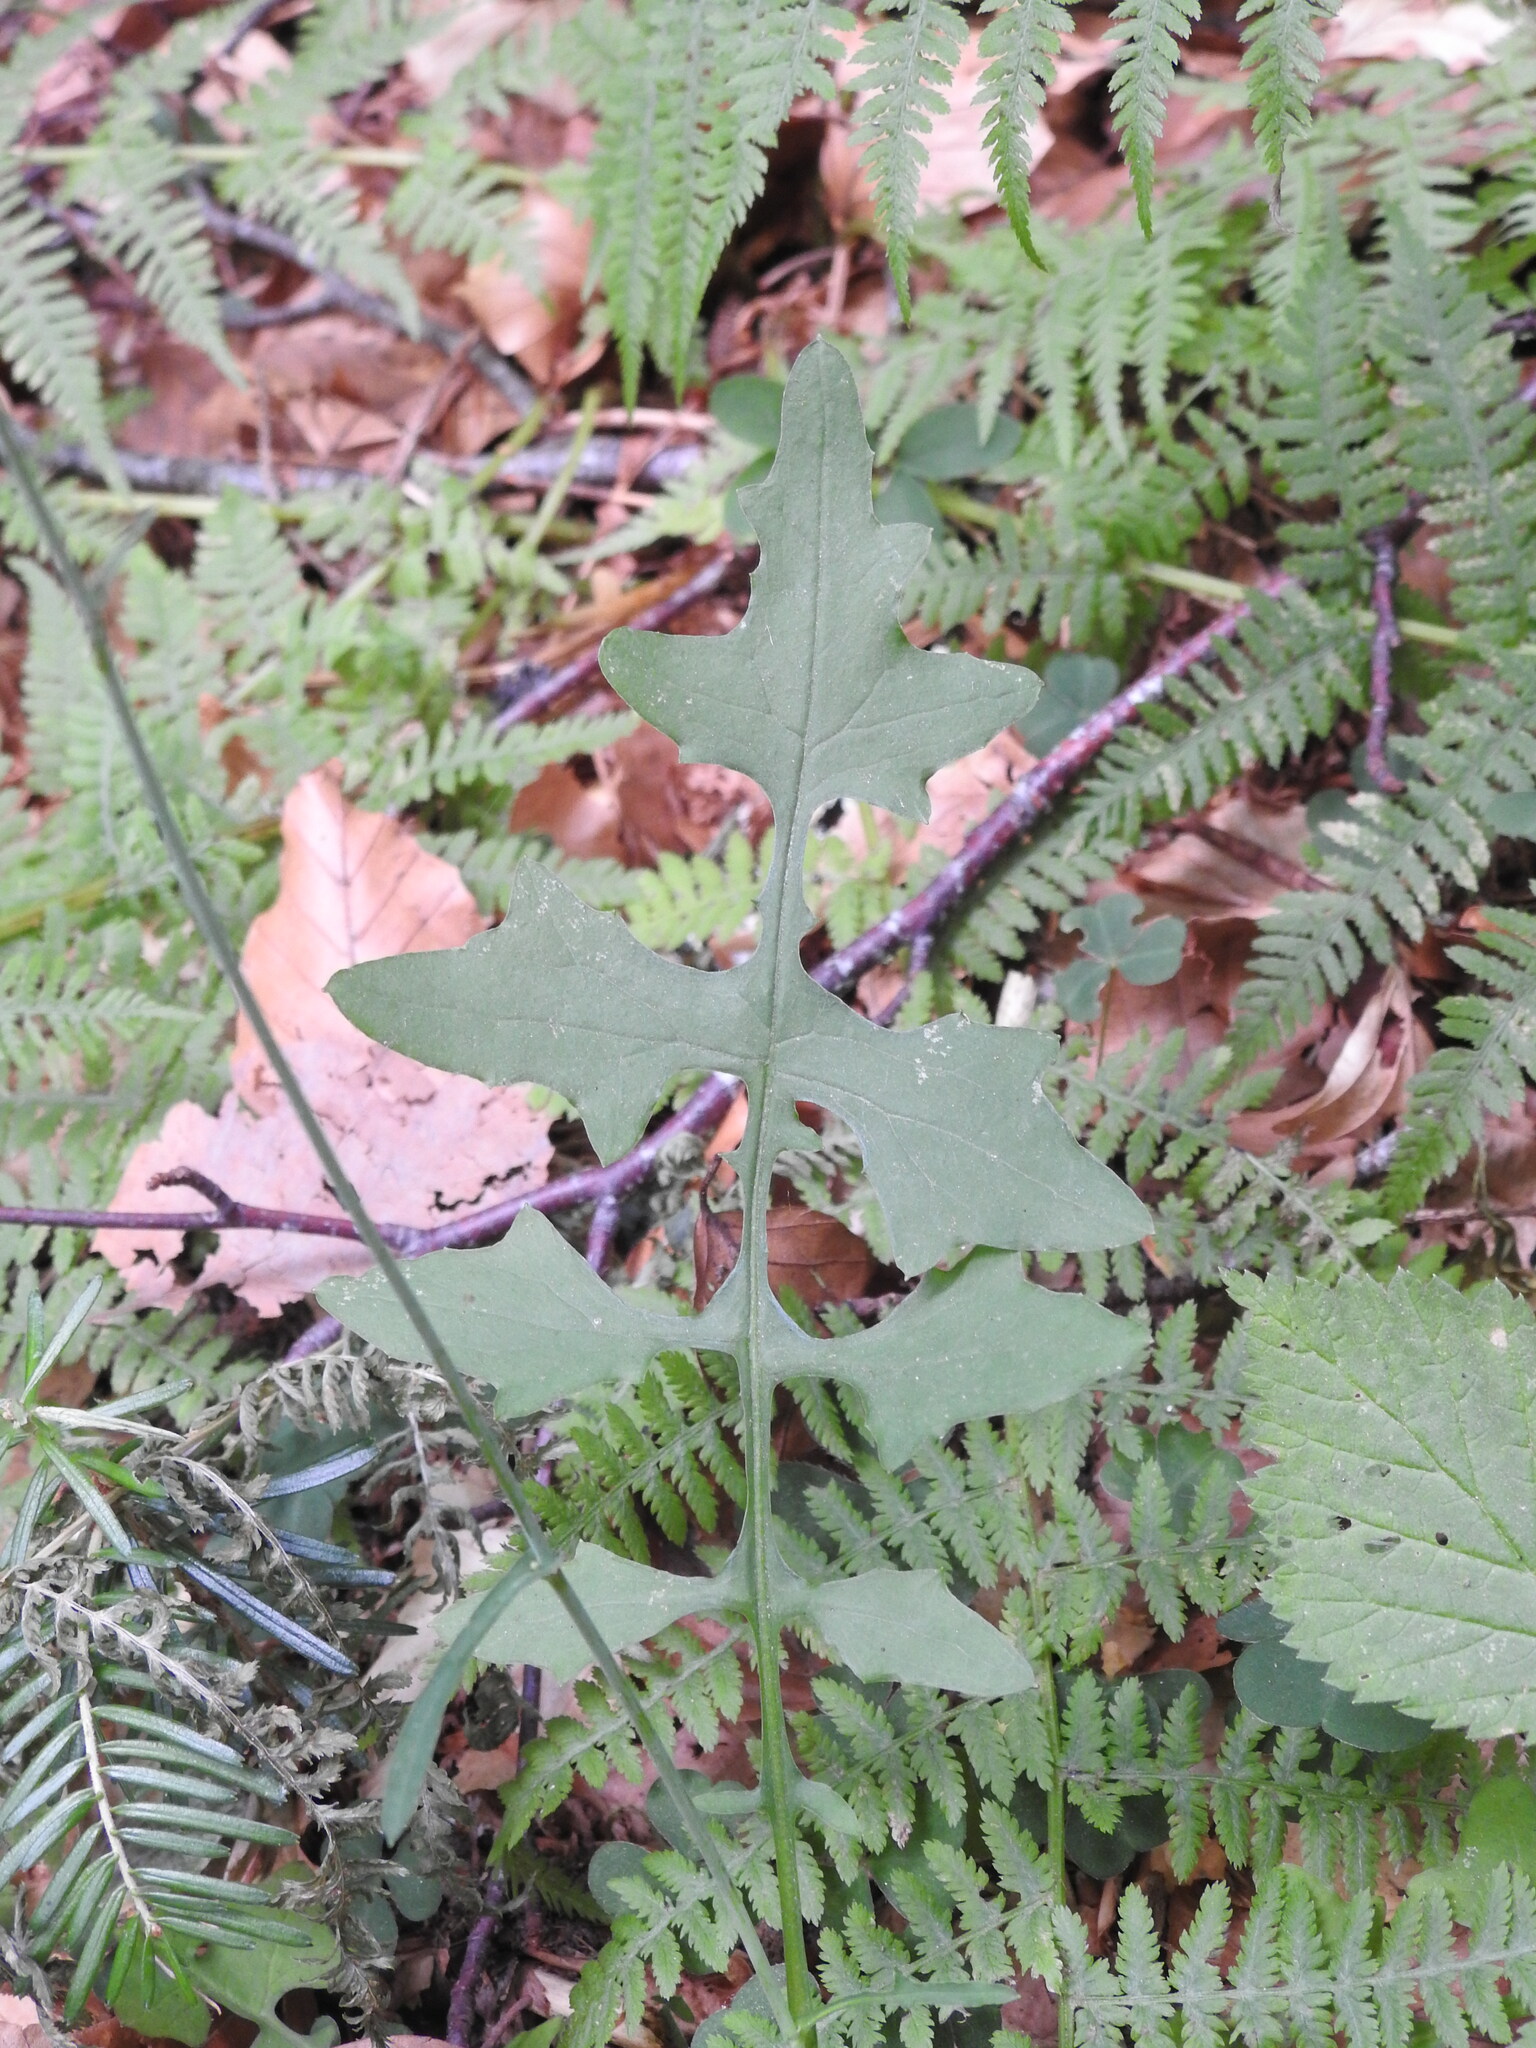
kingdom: Plantae
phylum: Tracheophyta
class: Magnoliopsida
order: Asterales
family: Asteraceae
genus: Mycelis
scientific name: Mycelis muralis
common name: Wall lettuce
